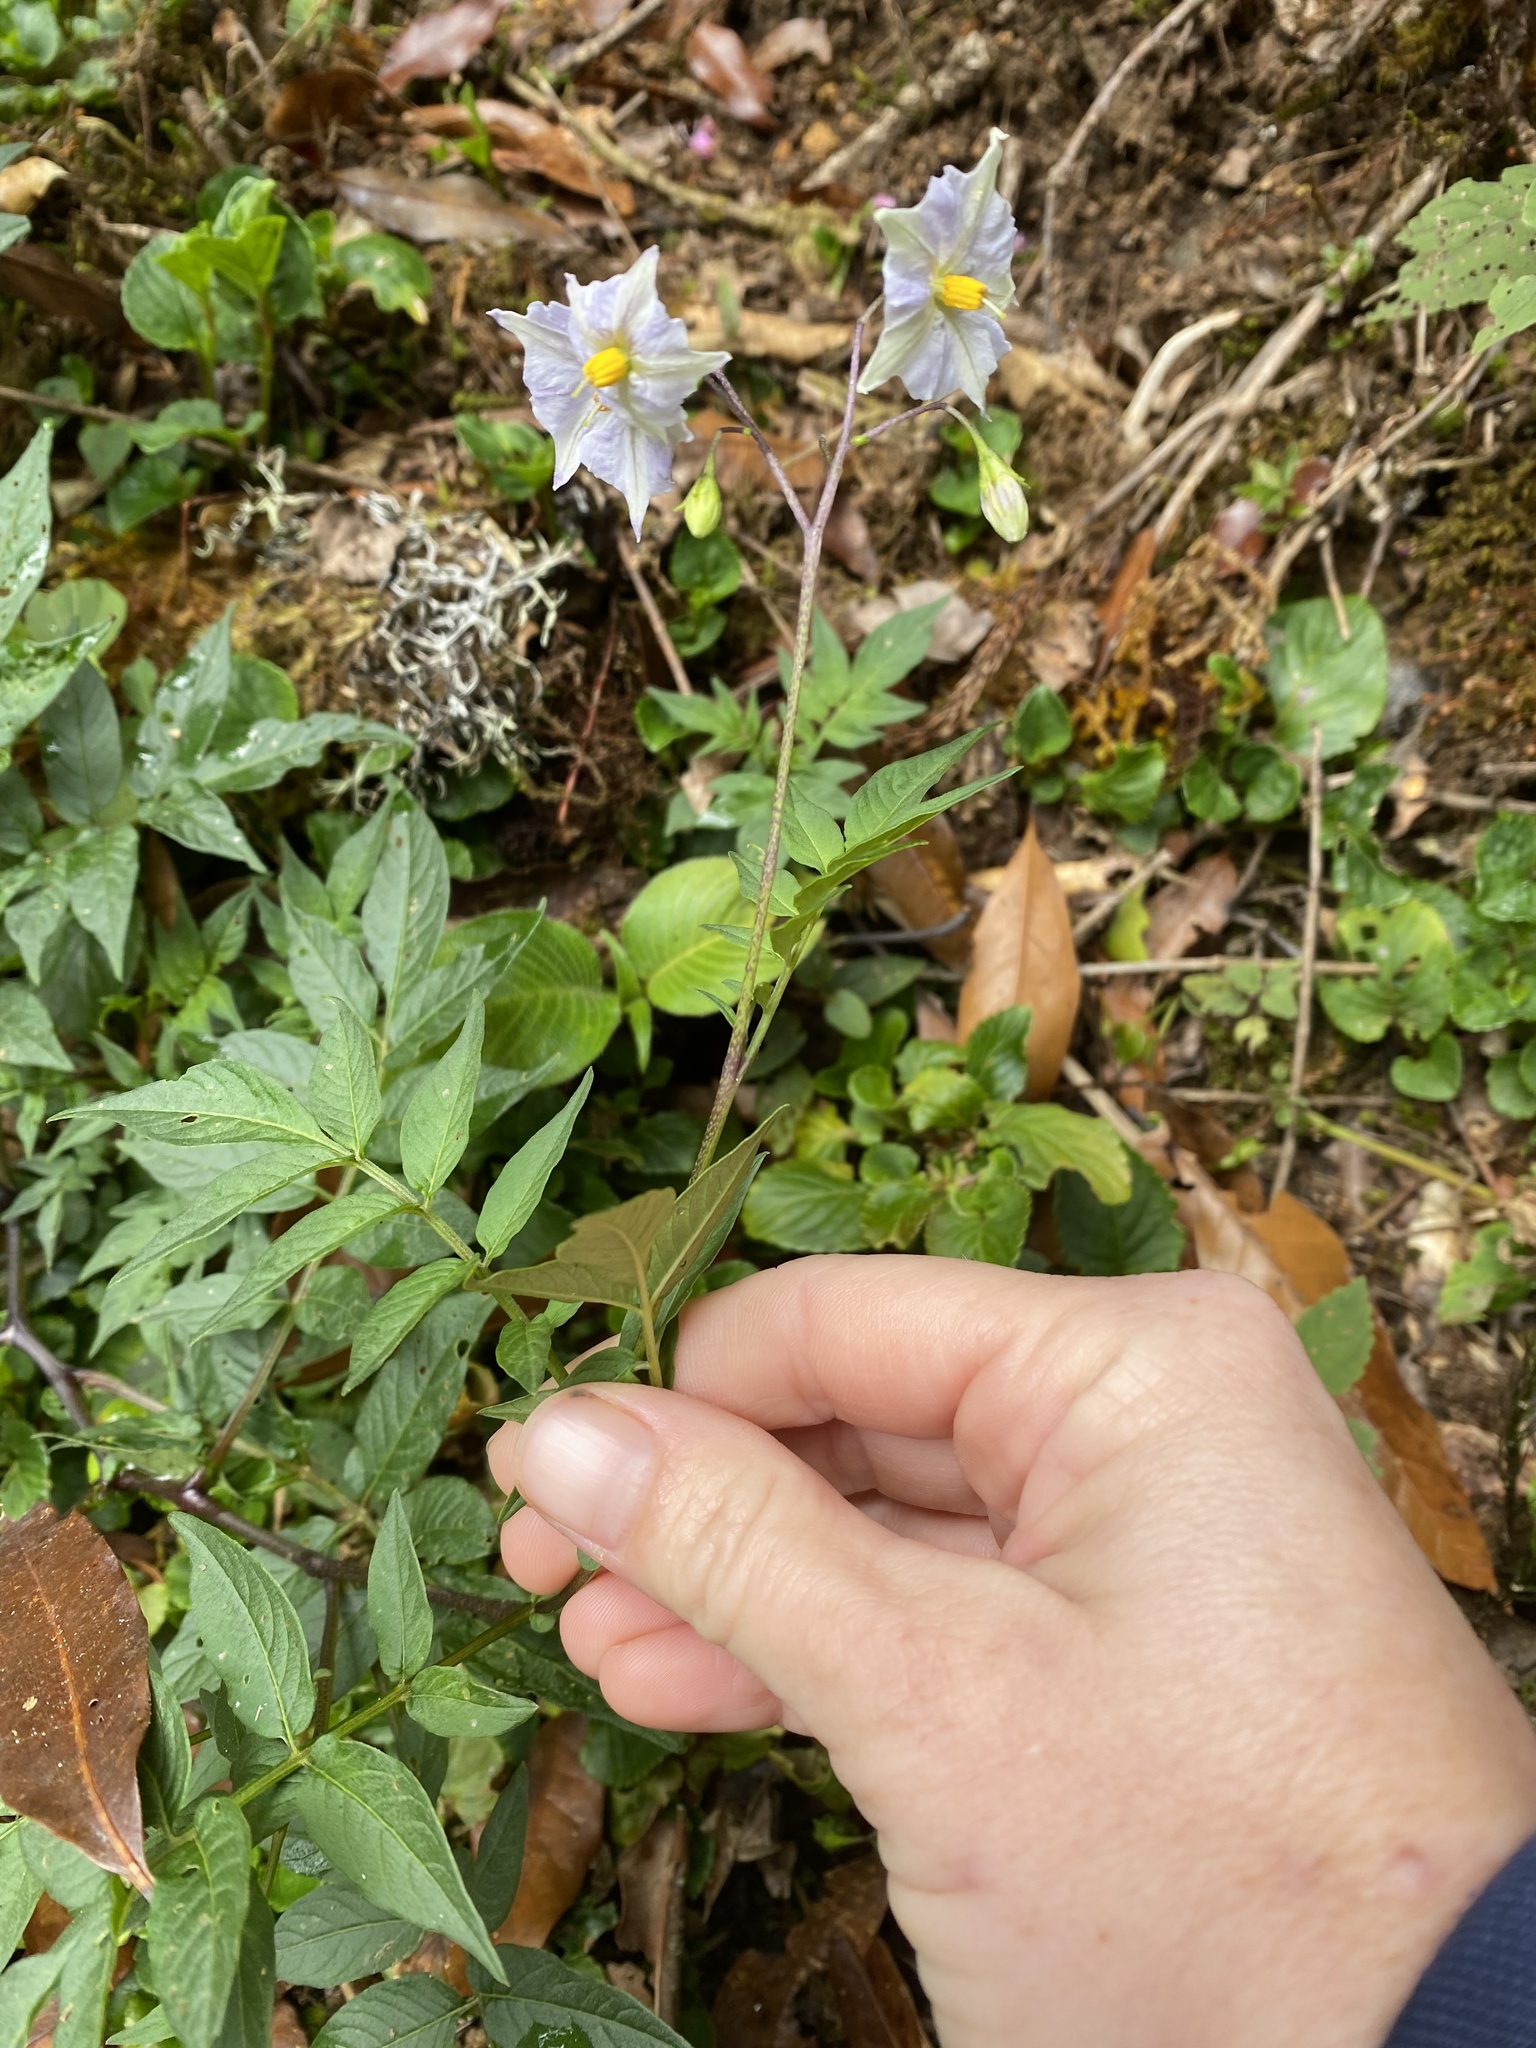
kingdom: Plantae
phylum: Tracheophyta
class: Magnoliopsida
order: Solanales
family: Solanaceae
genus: Solanum
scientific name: Solanum longiconicum
